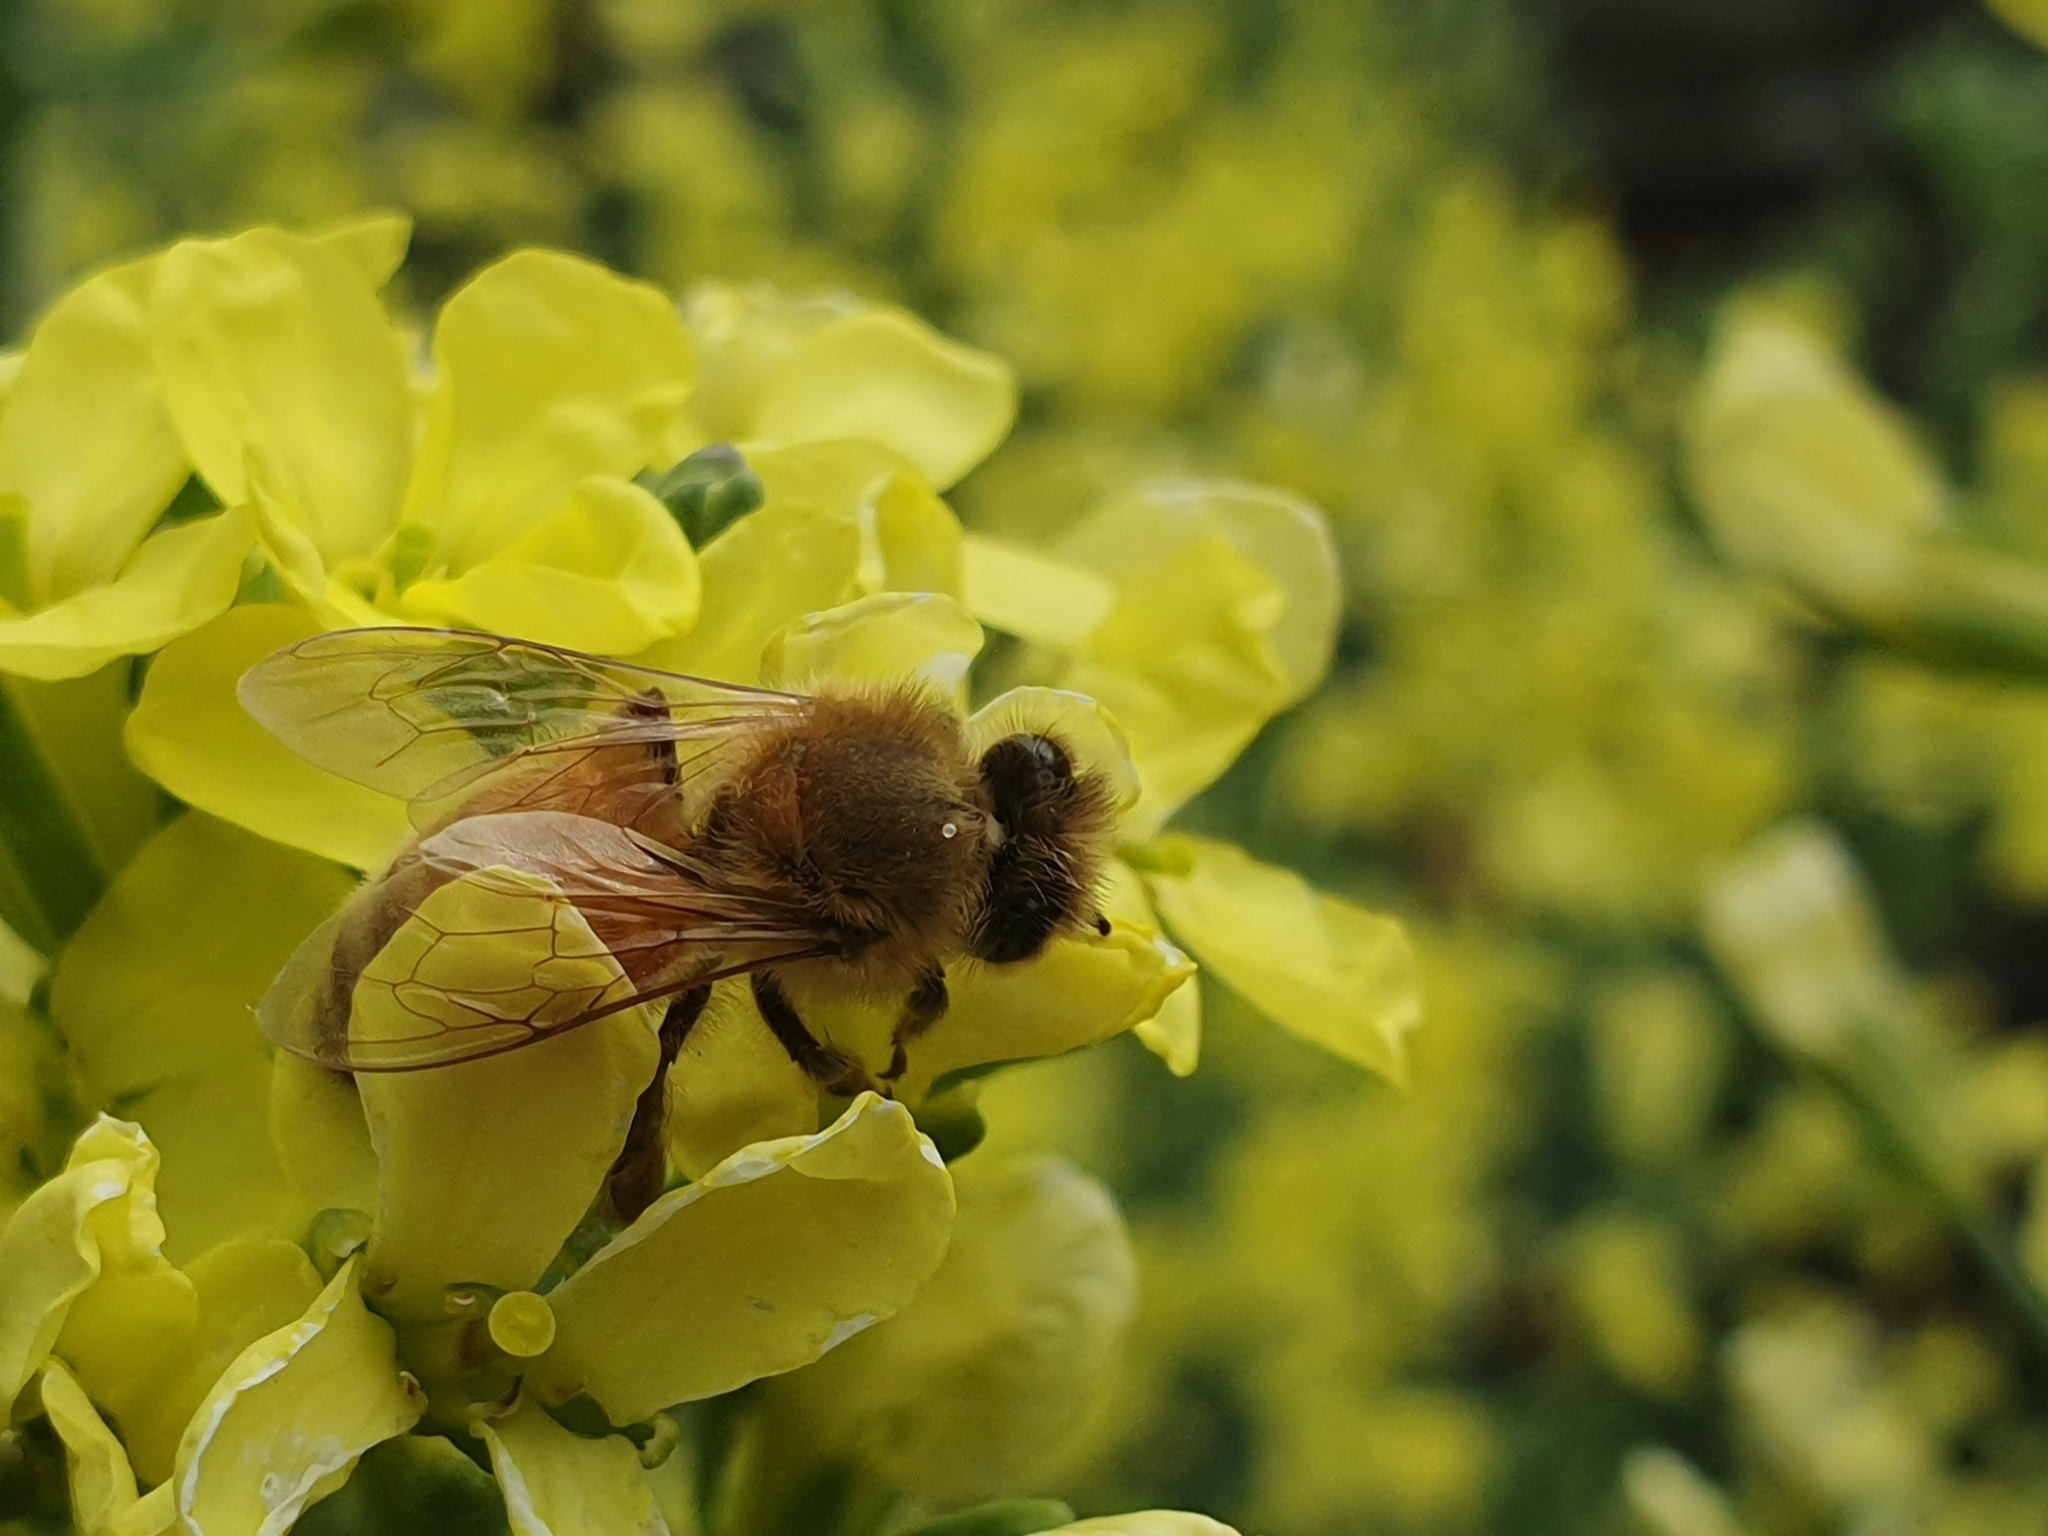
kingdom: Animalia
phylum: Arthropoda
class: Insecta
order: Hymenoptera
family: Apidae
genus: Apis
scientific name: Apis mellifera
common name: Honey bee
